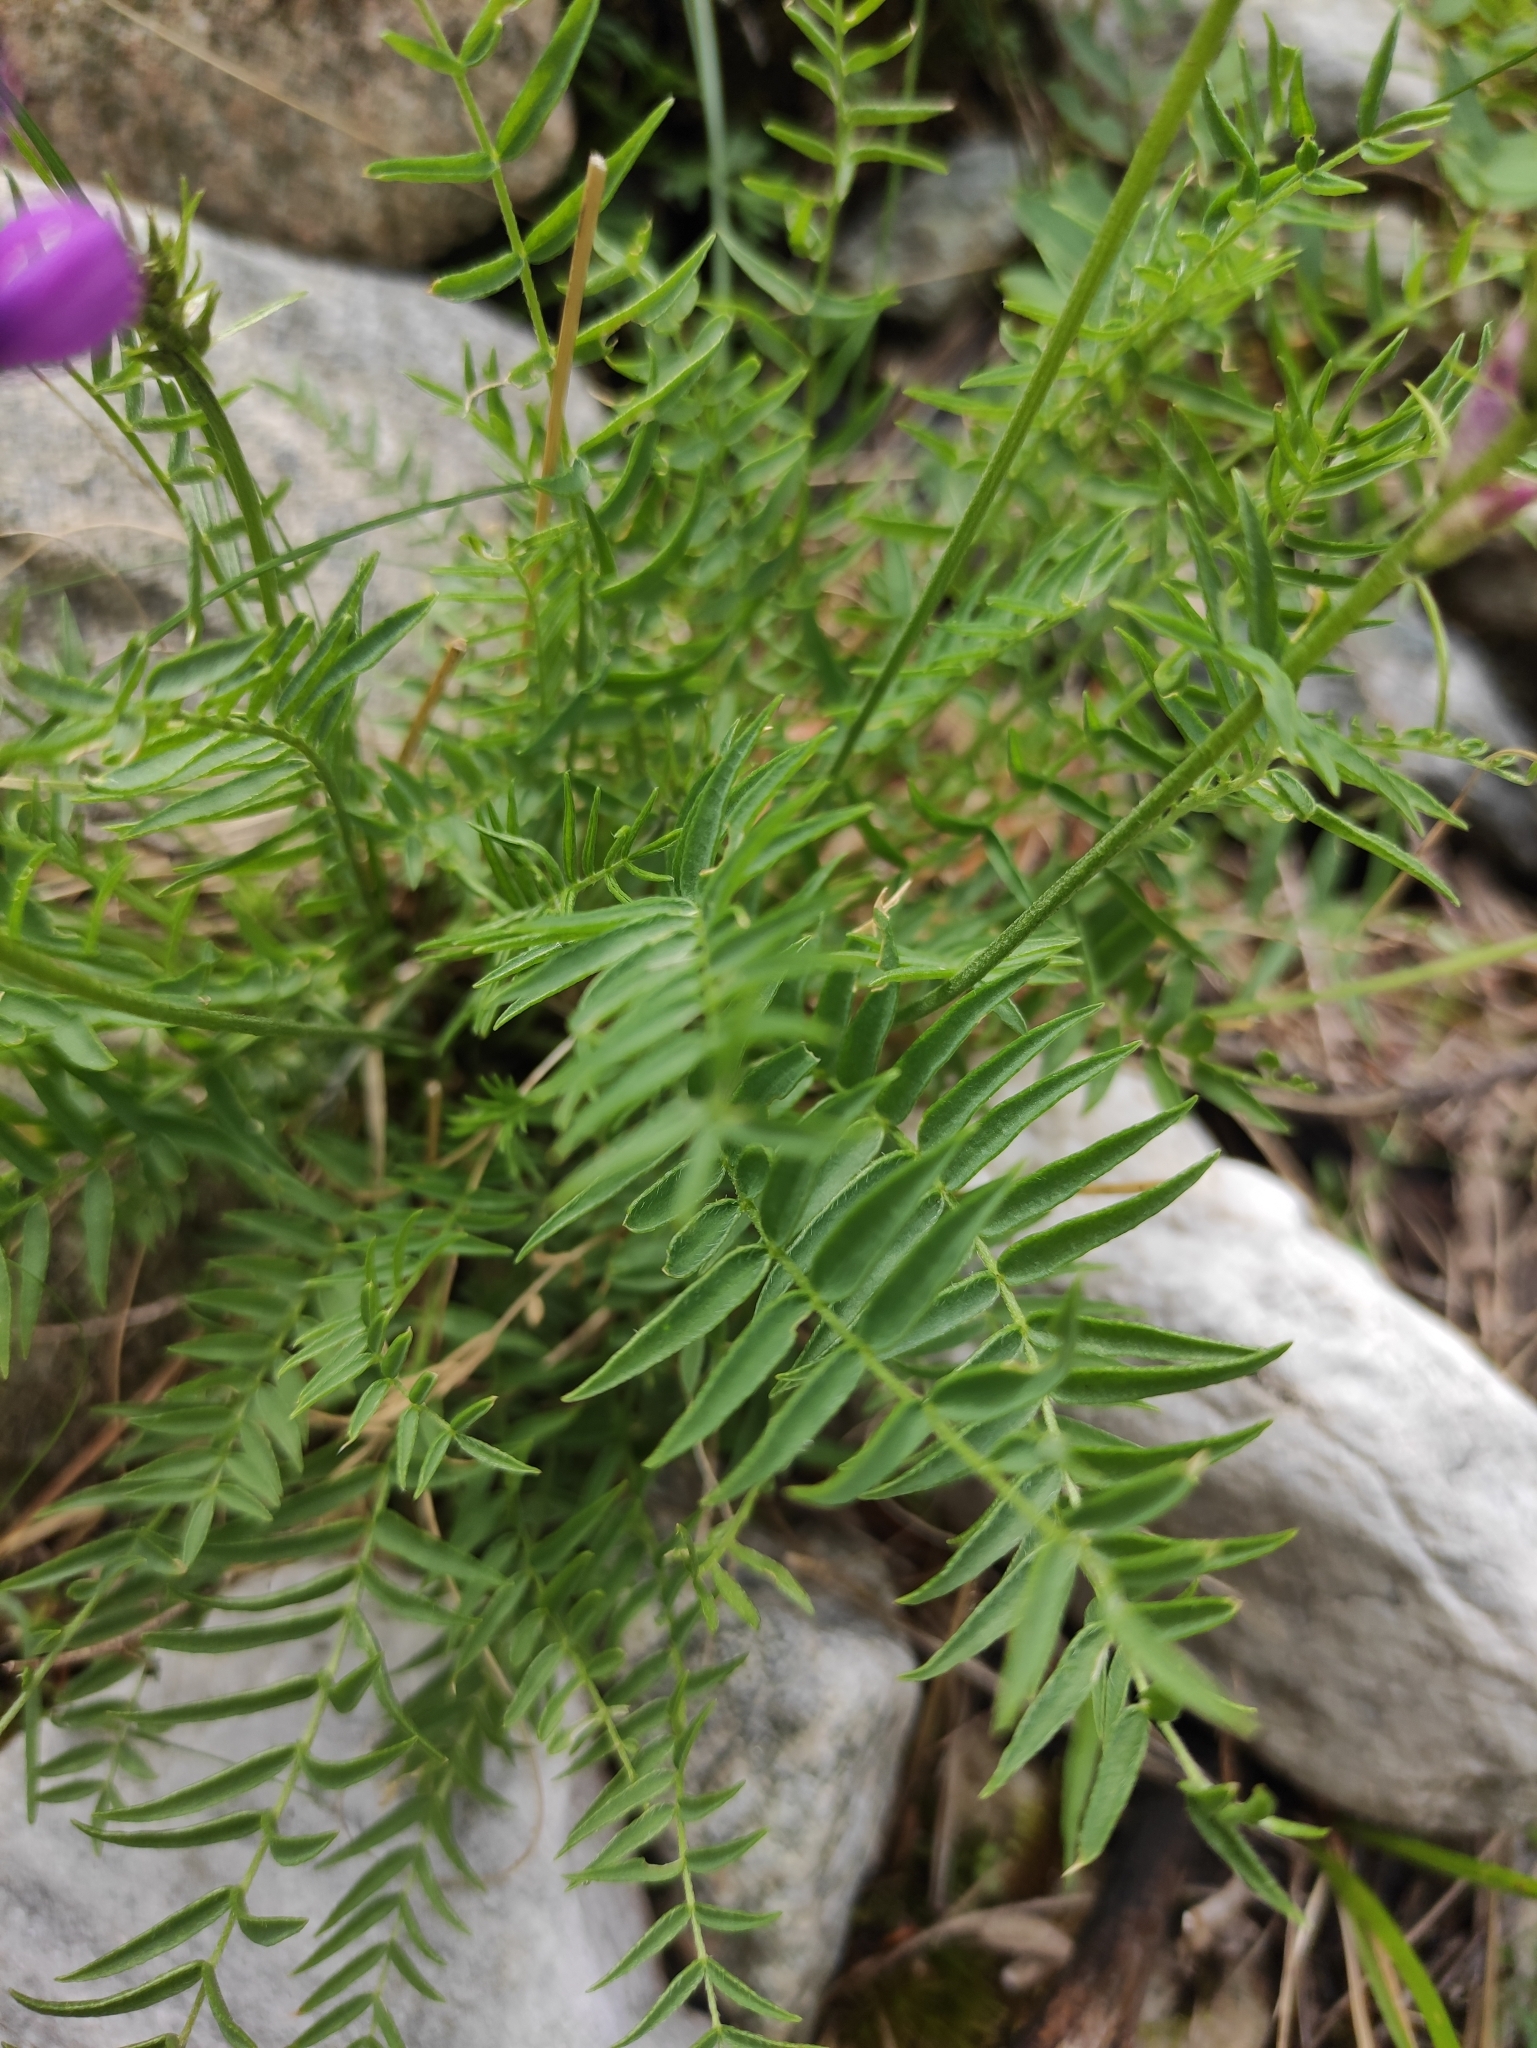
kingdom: Plantae
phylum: Tracheophyta
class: Magnoliopsida
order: Fabales
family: Fabaceae
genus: Oxytropis
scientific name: Oxytropis longirostra
